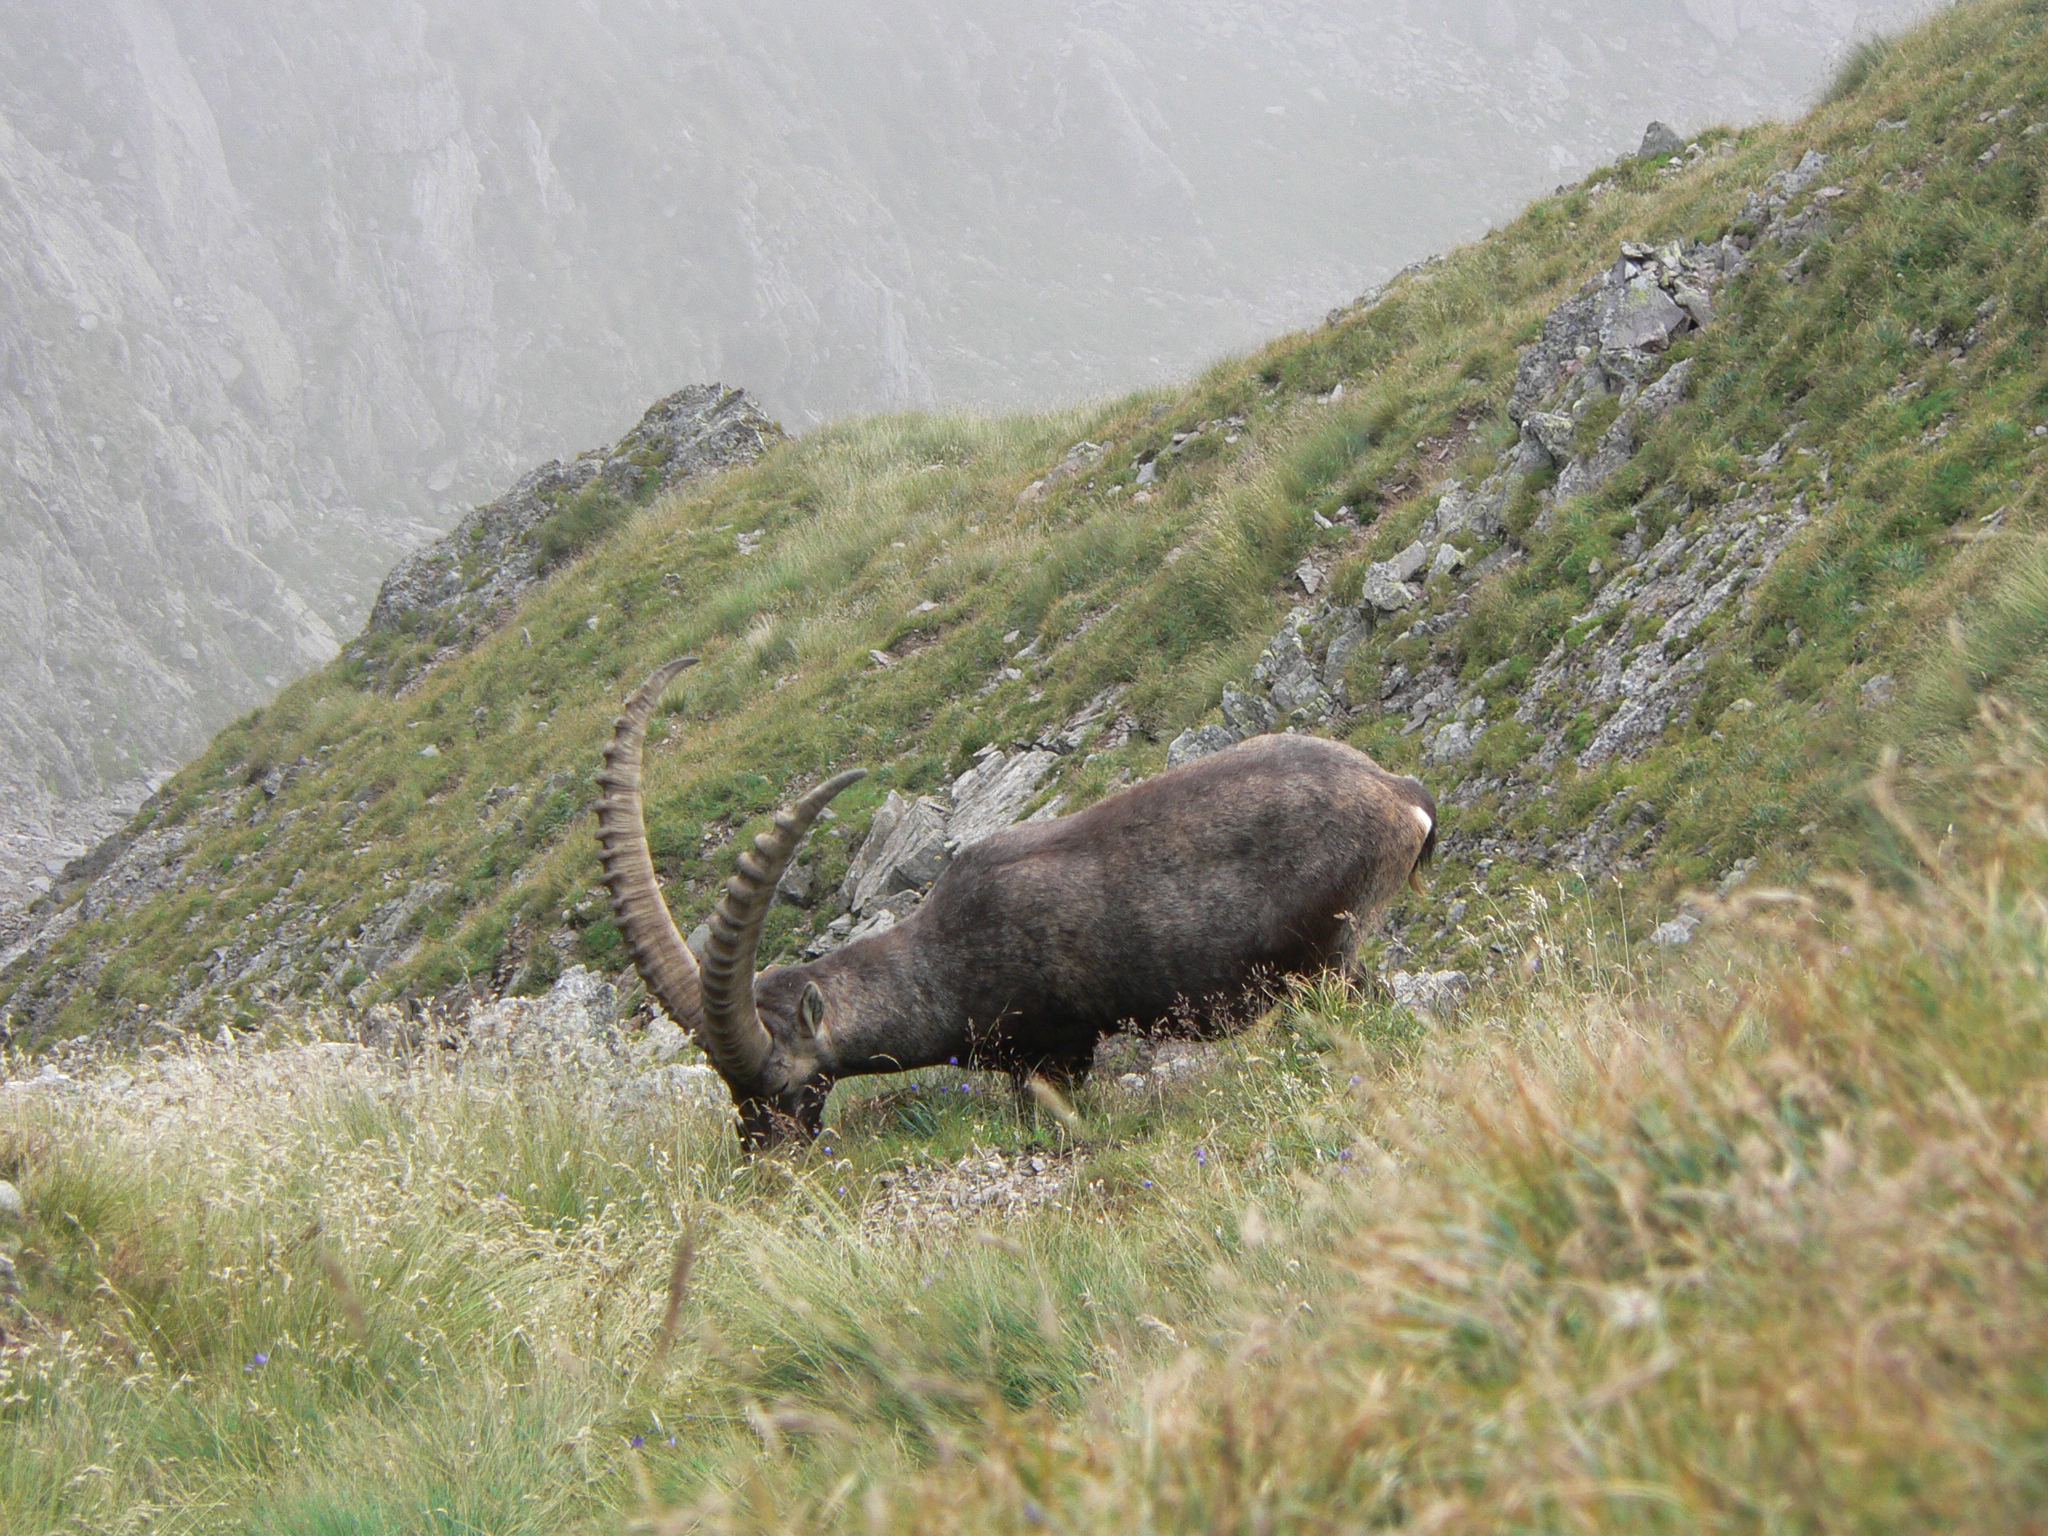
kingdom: Animalia
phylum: Chordata
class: Mammalia
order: Artiodactyla
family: Bovidae
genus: Capra
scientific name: Capra ibex
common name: Alpine ibex
